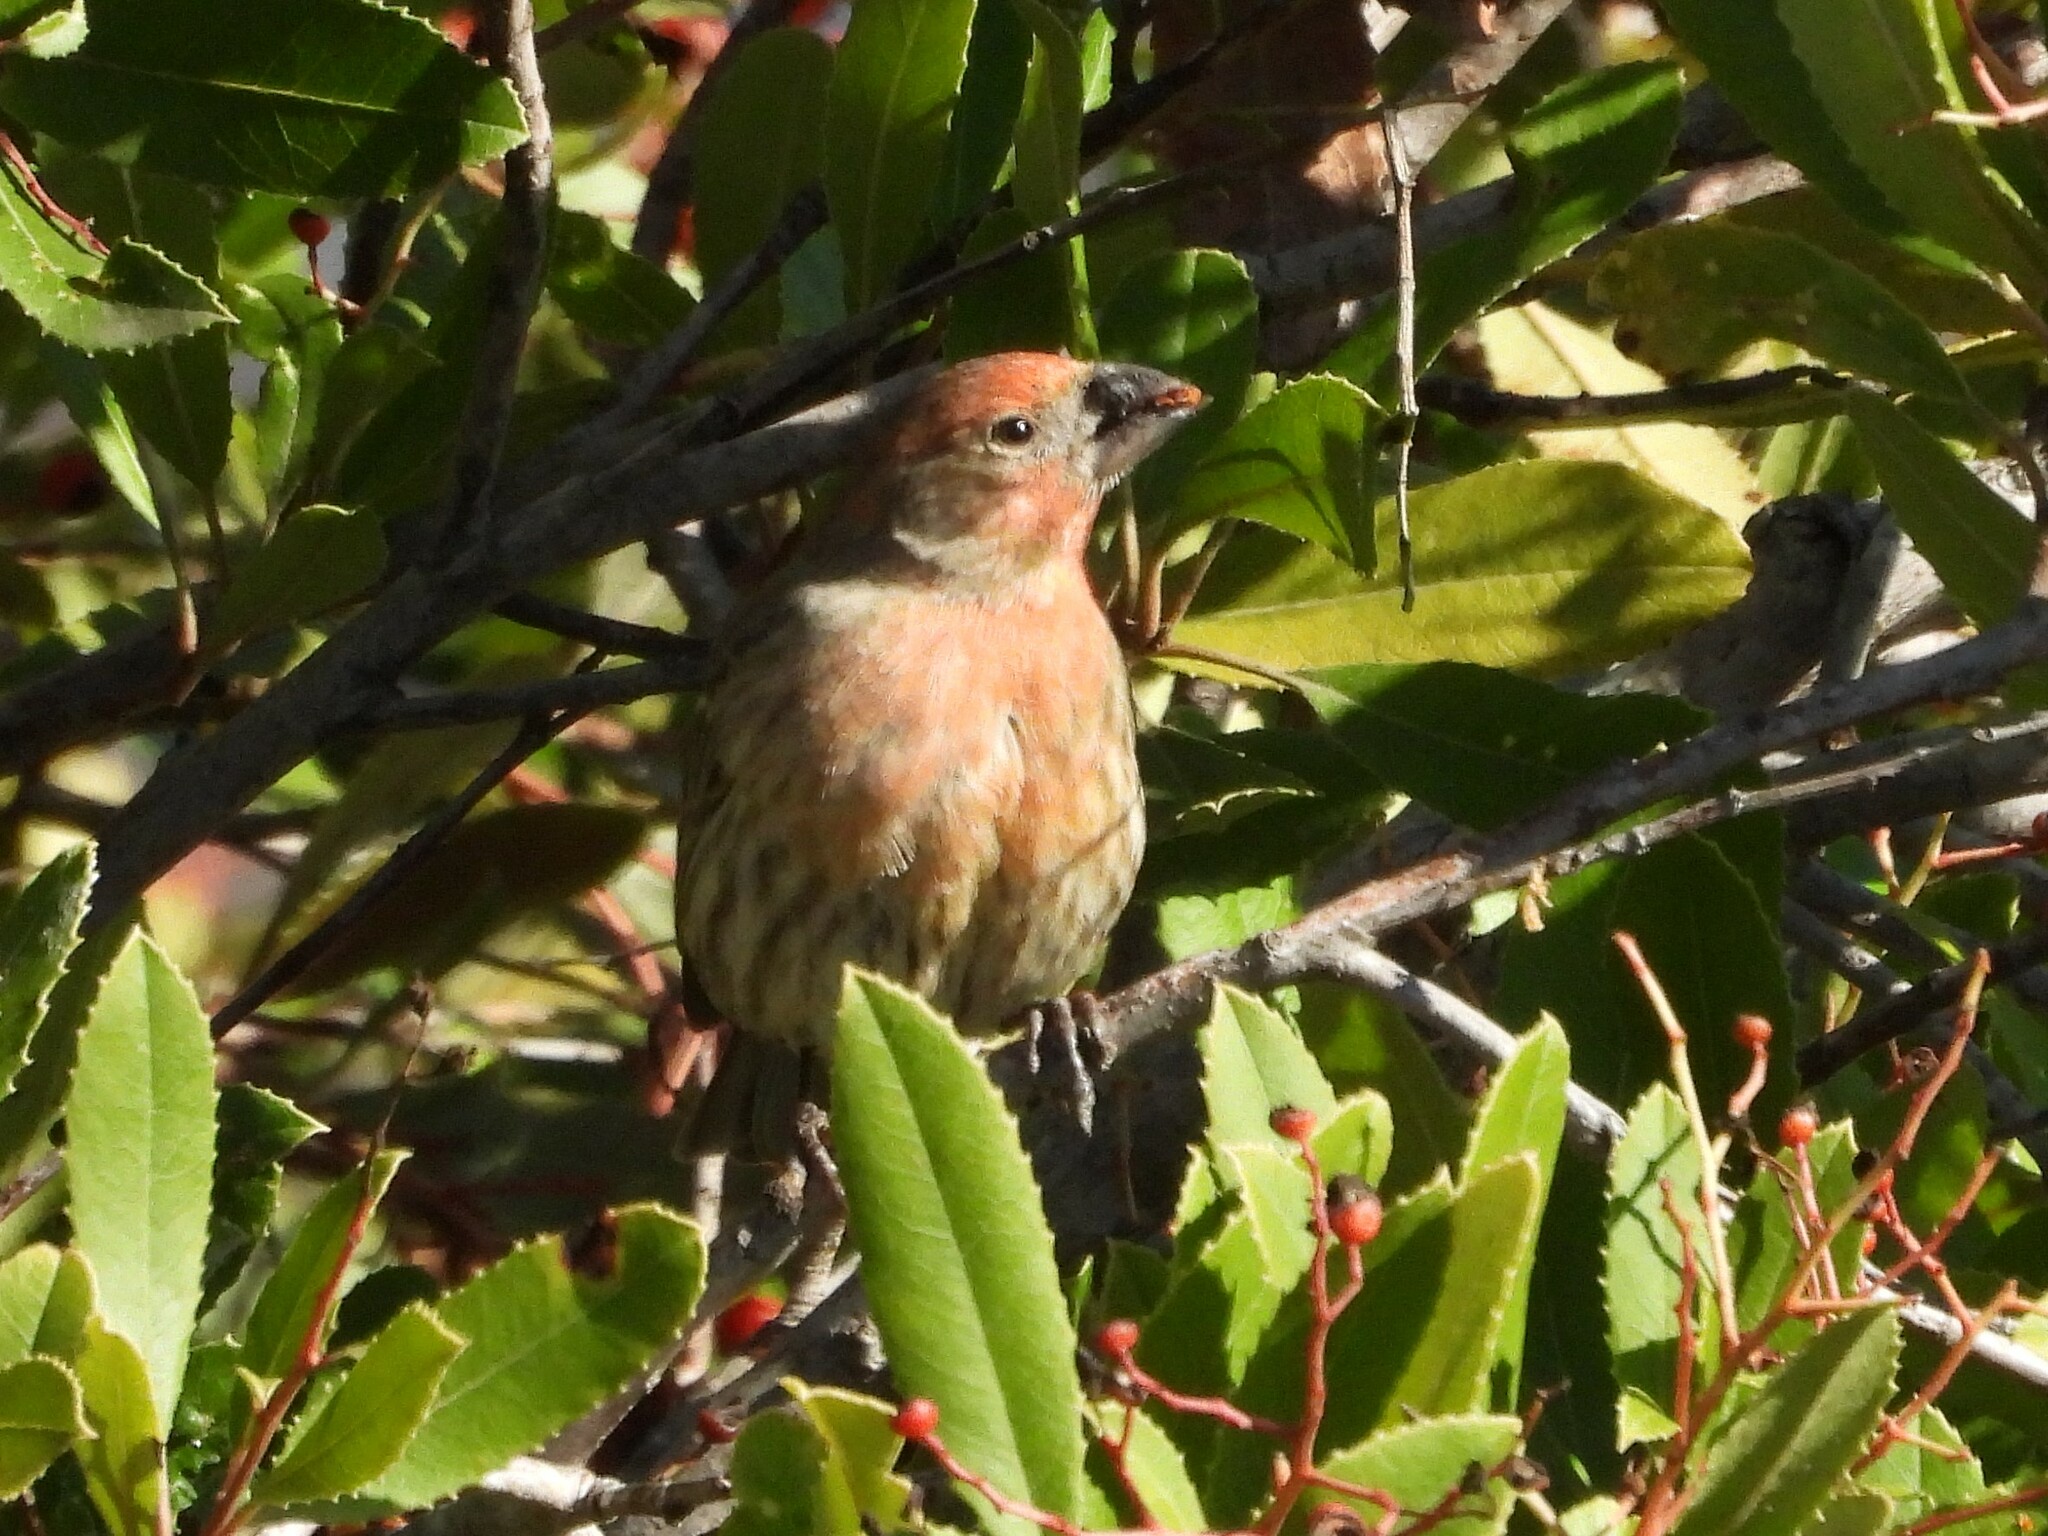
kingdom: Animalia
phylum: Chordata
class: Aves
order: Passeriformes
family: Fringillidae
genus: Haemorhous
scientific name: Haemorhous mexicanus
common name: House finch
